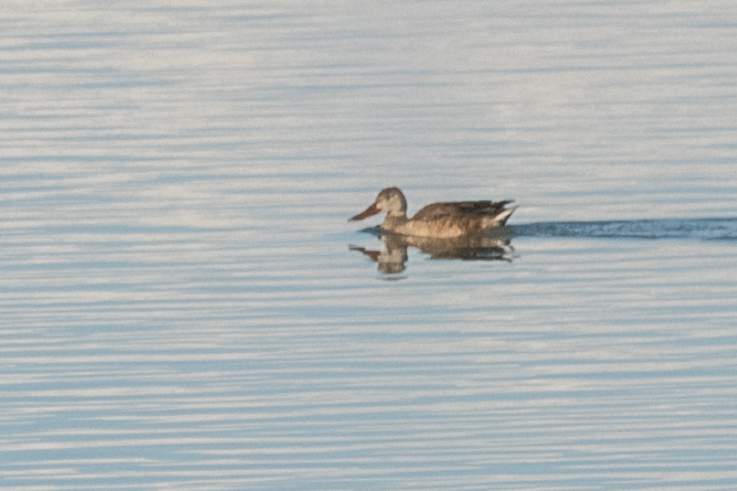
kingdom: Animalia
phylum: Chordata
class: Aves
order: Anseriformes
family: Anatidae
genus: Spatula
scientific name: Spatula clypeata
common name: Northern shoveler
